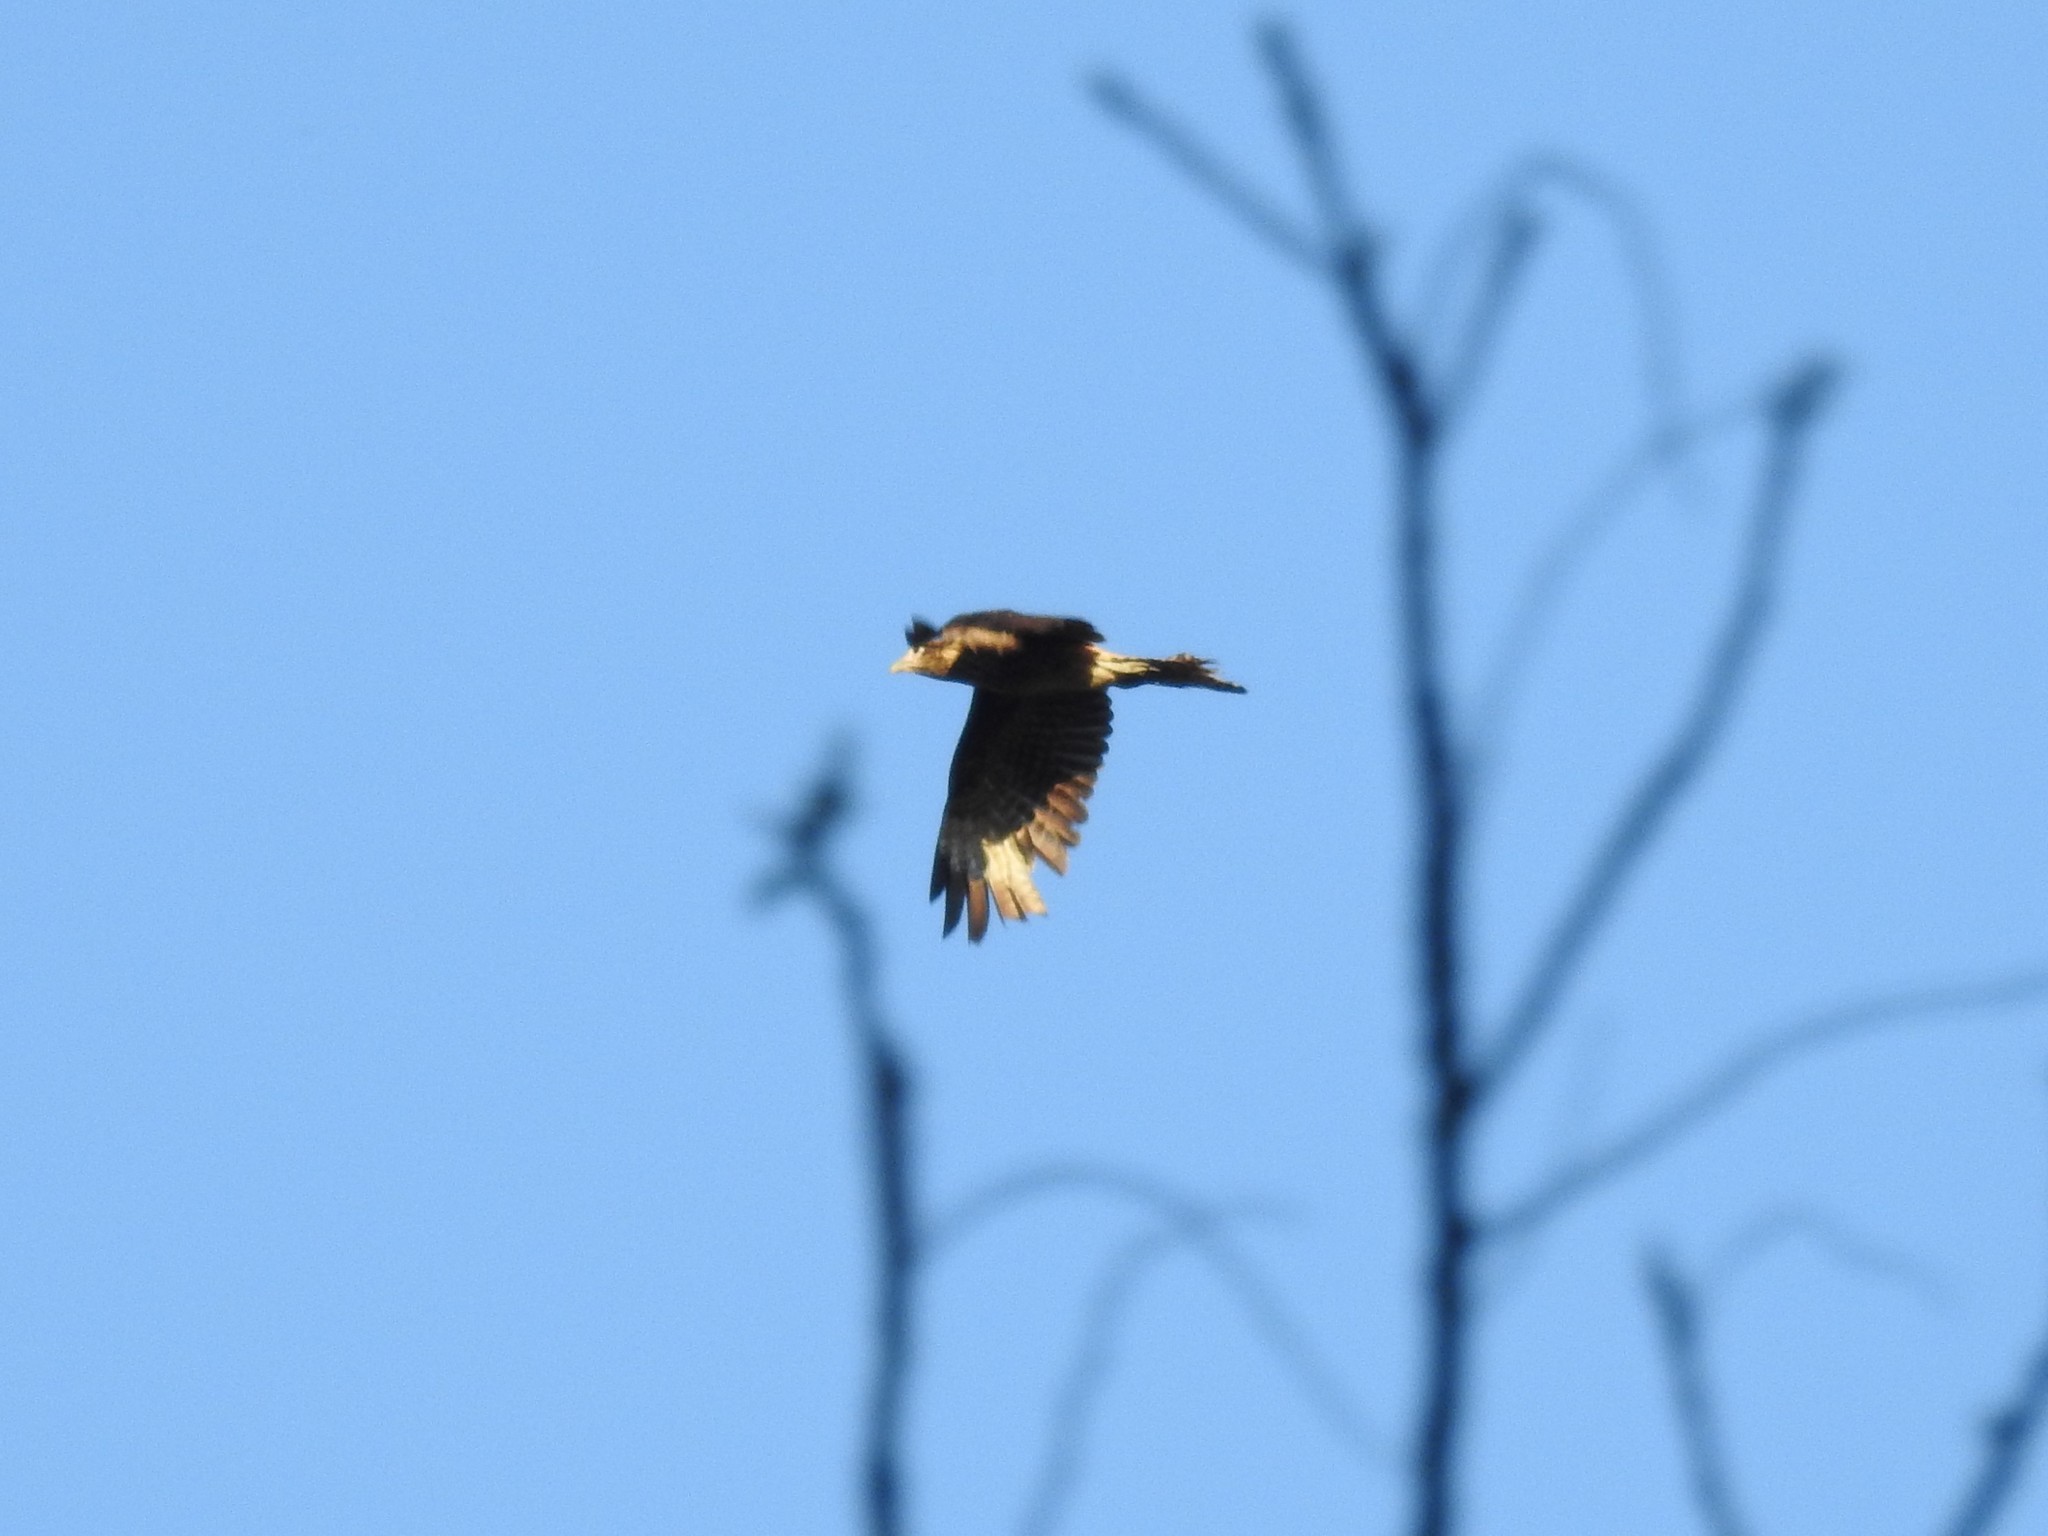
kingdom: Animalia
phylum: Chordata
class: Aves
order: Falconiformes
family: Falconidae
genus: Daptrius
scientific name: Daptrius
